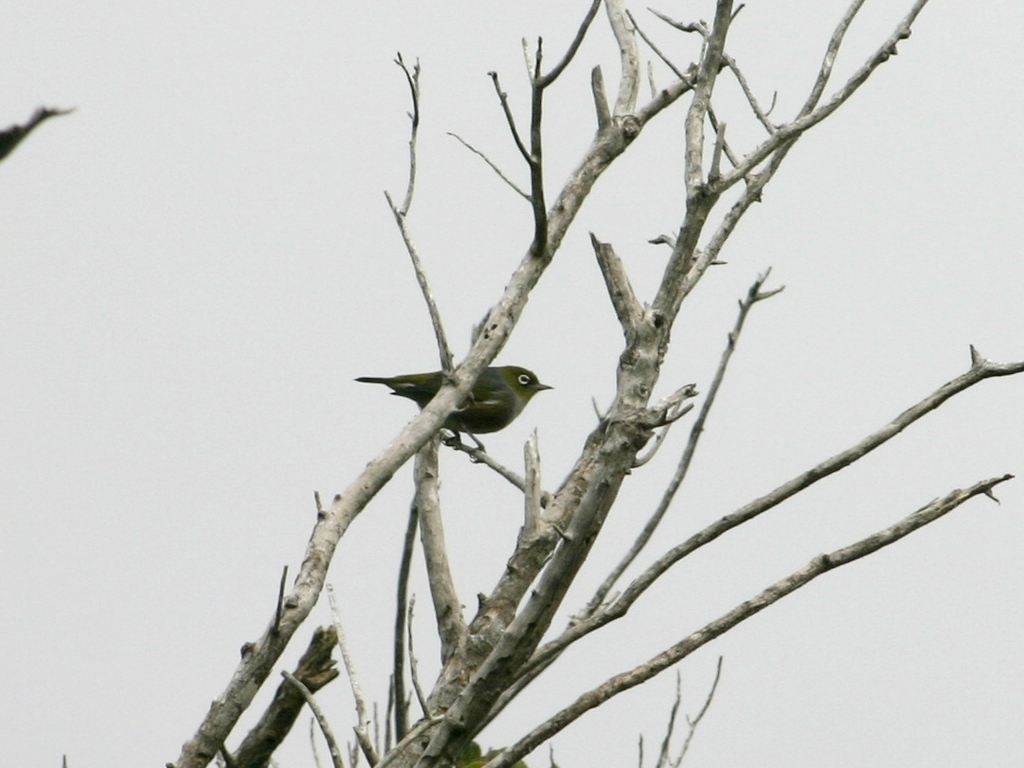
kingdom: Animalia
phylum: Chordata
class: Aves
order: Passeriformes
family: Zosteropidae
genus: Zosterops
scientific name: Zosterops lateralis
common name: Silvereye
